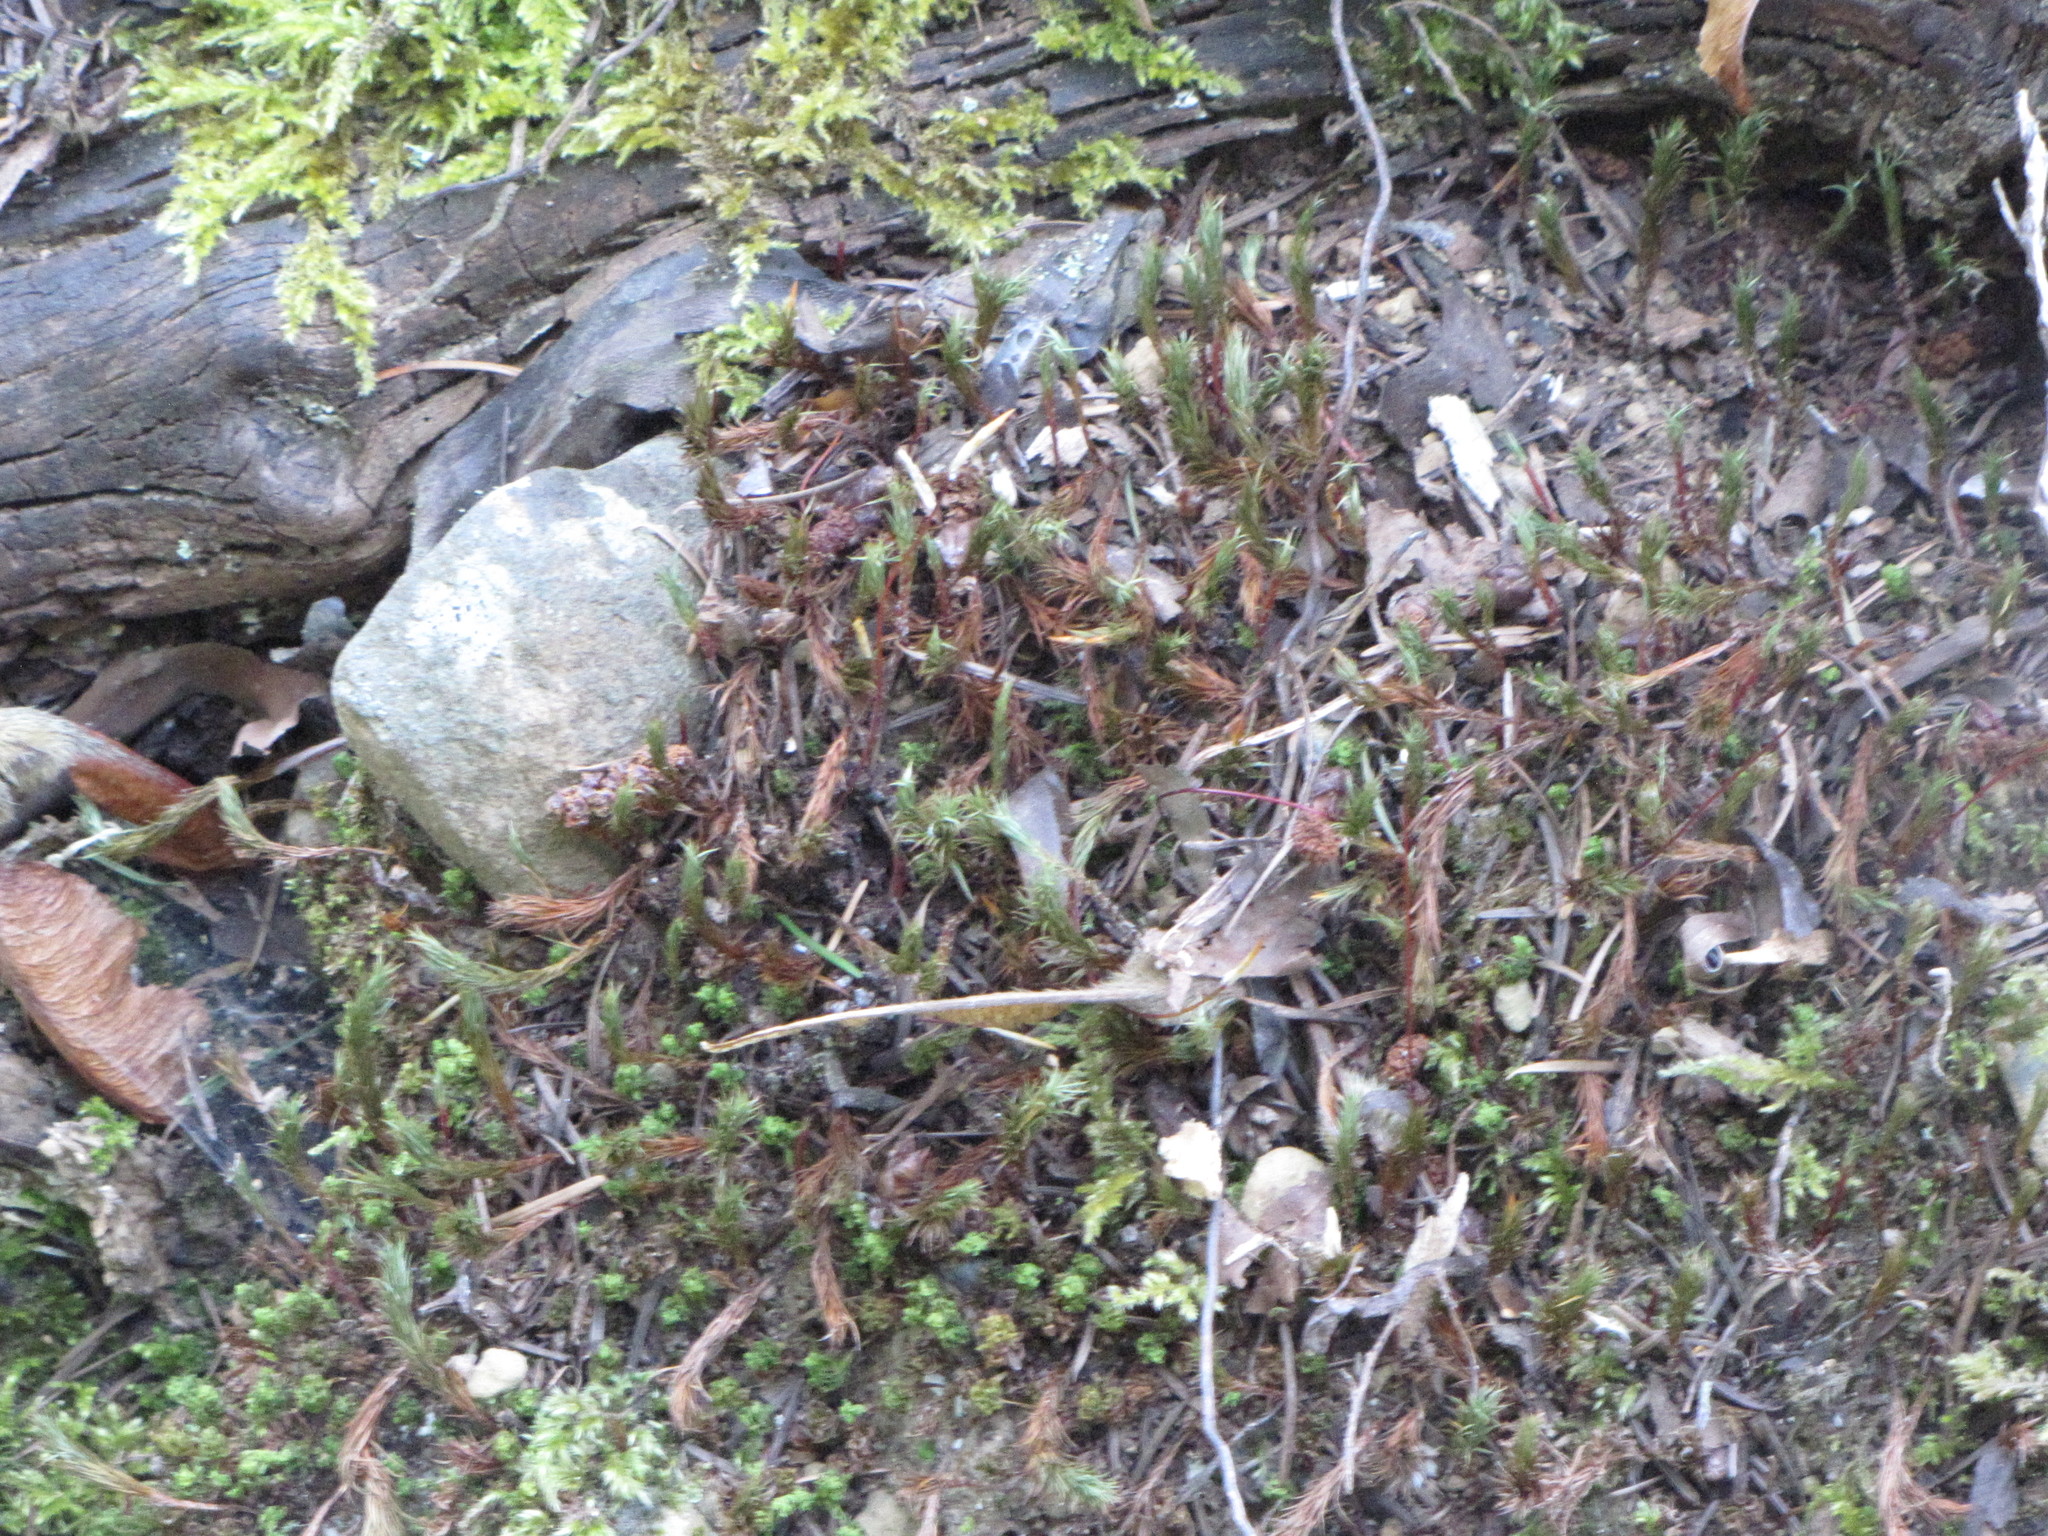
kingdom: Plantae
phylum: Bryophyta
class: Polytrichopsida
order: Polytrichales
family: Polytrichaceae
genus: Polytrichum
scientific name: Polytrichum juniperinum
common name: Juniper haircap moss
